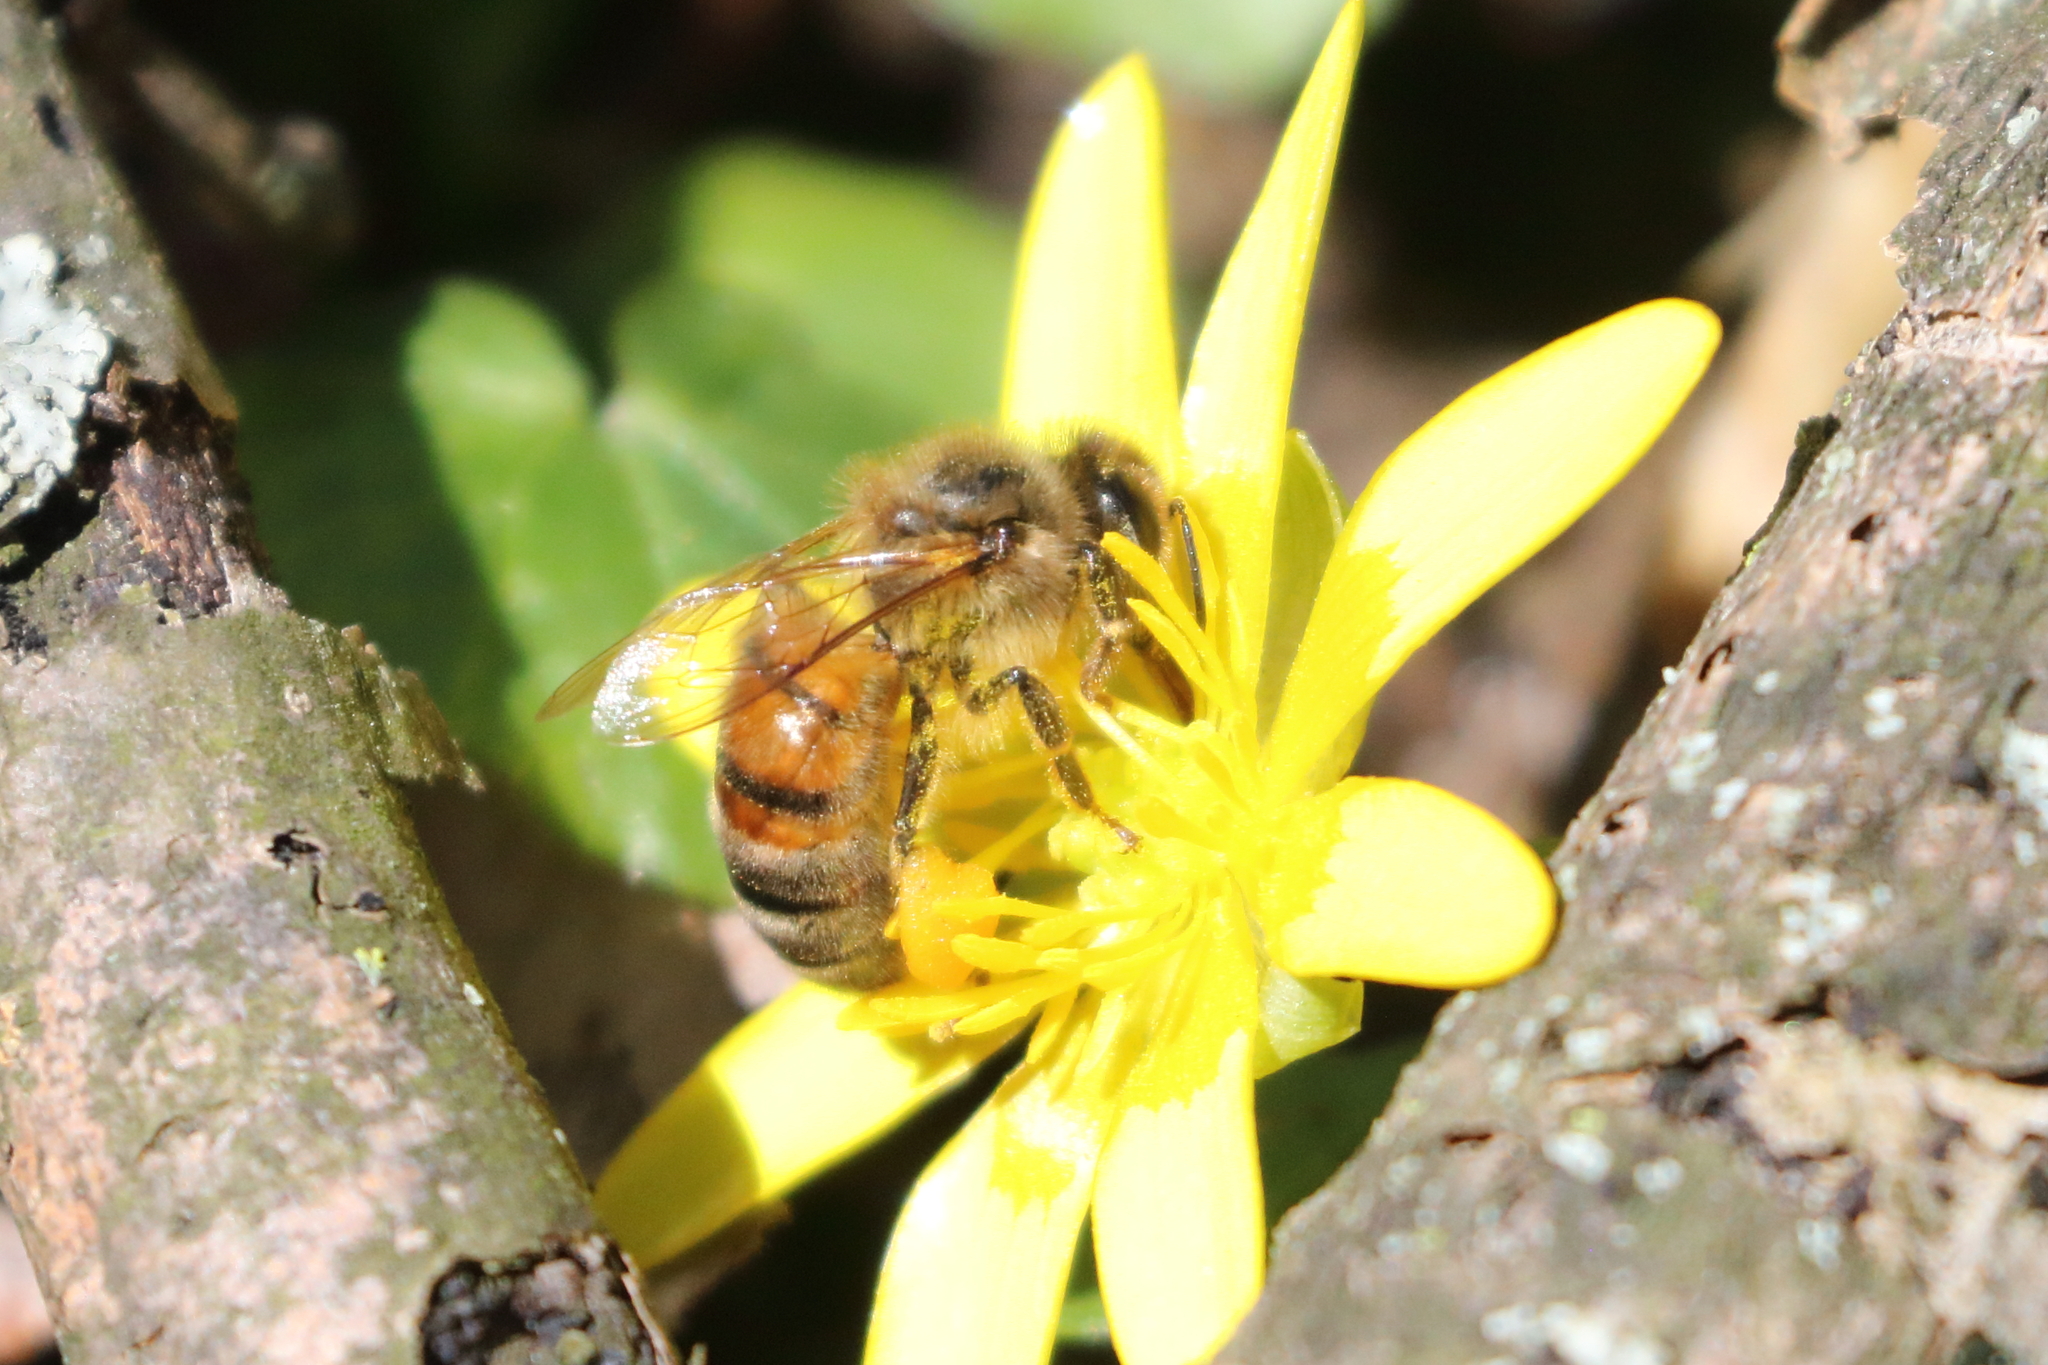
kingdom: Animalia
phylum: Arthropoda
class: Insecta
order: Hymenoptera
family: Apidae
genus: Apis
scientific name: Apis mellifera
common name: Honey bee
